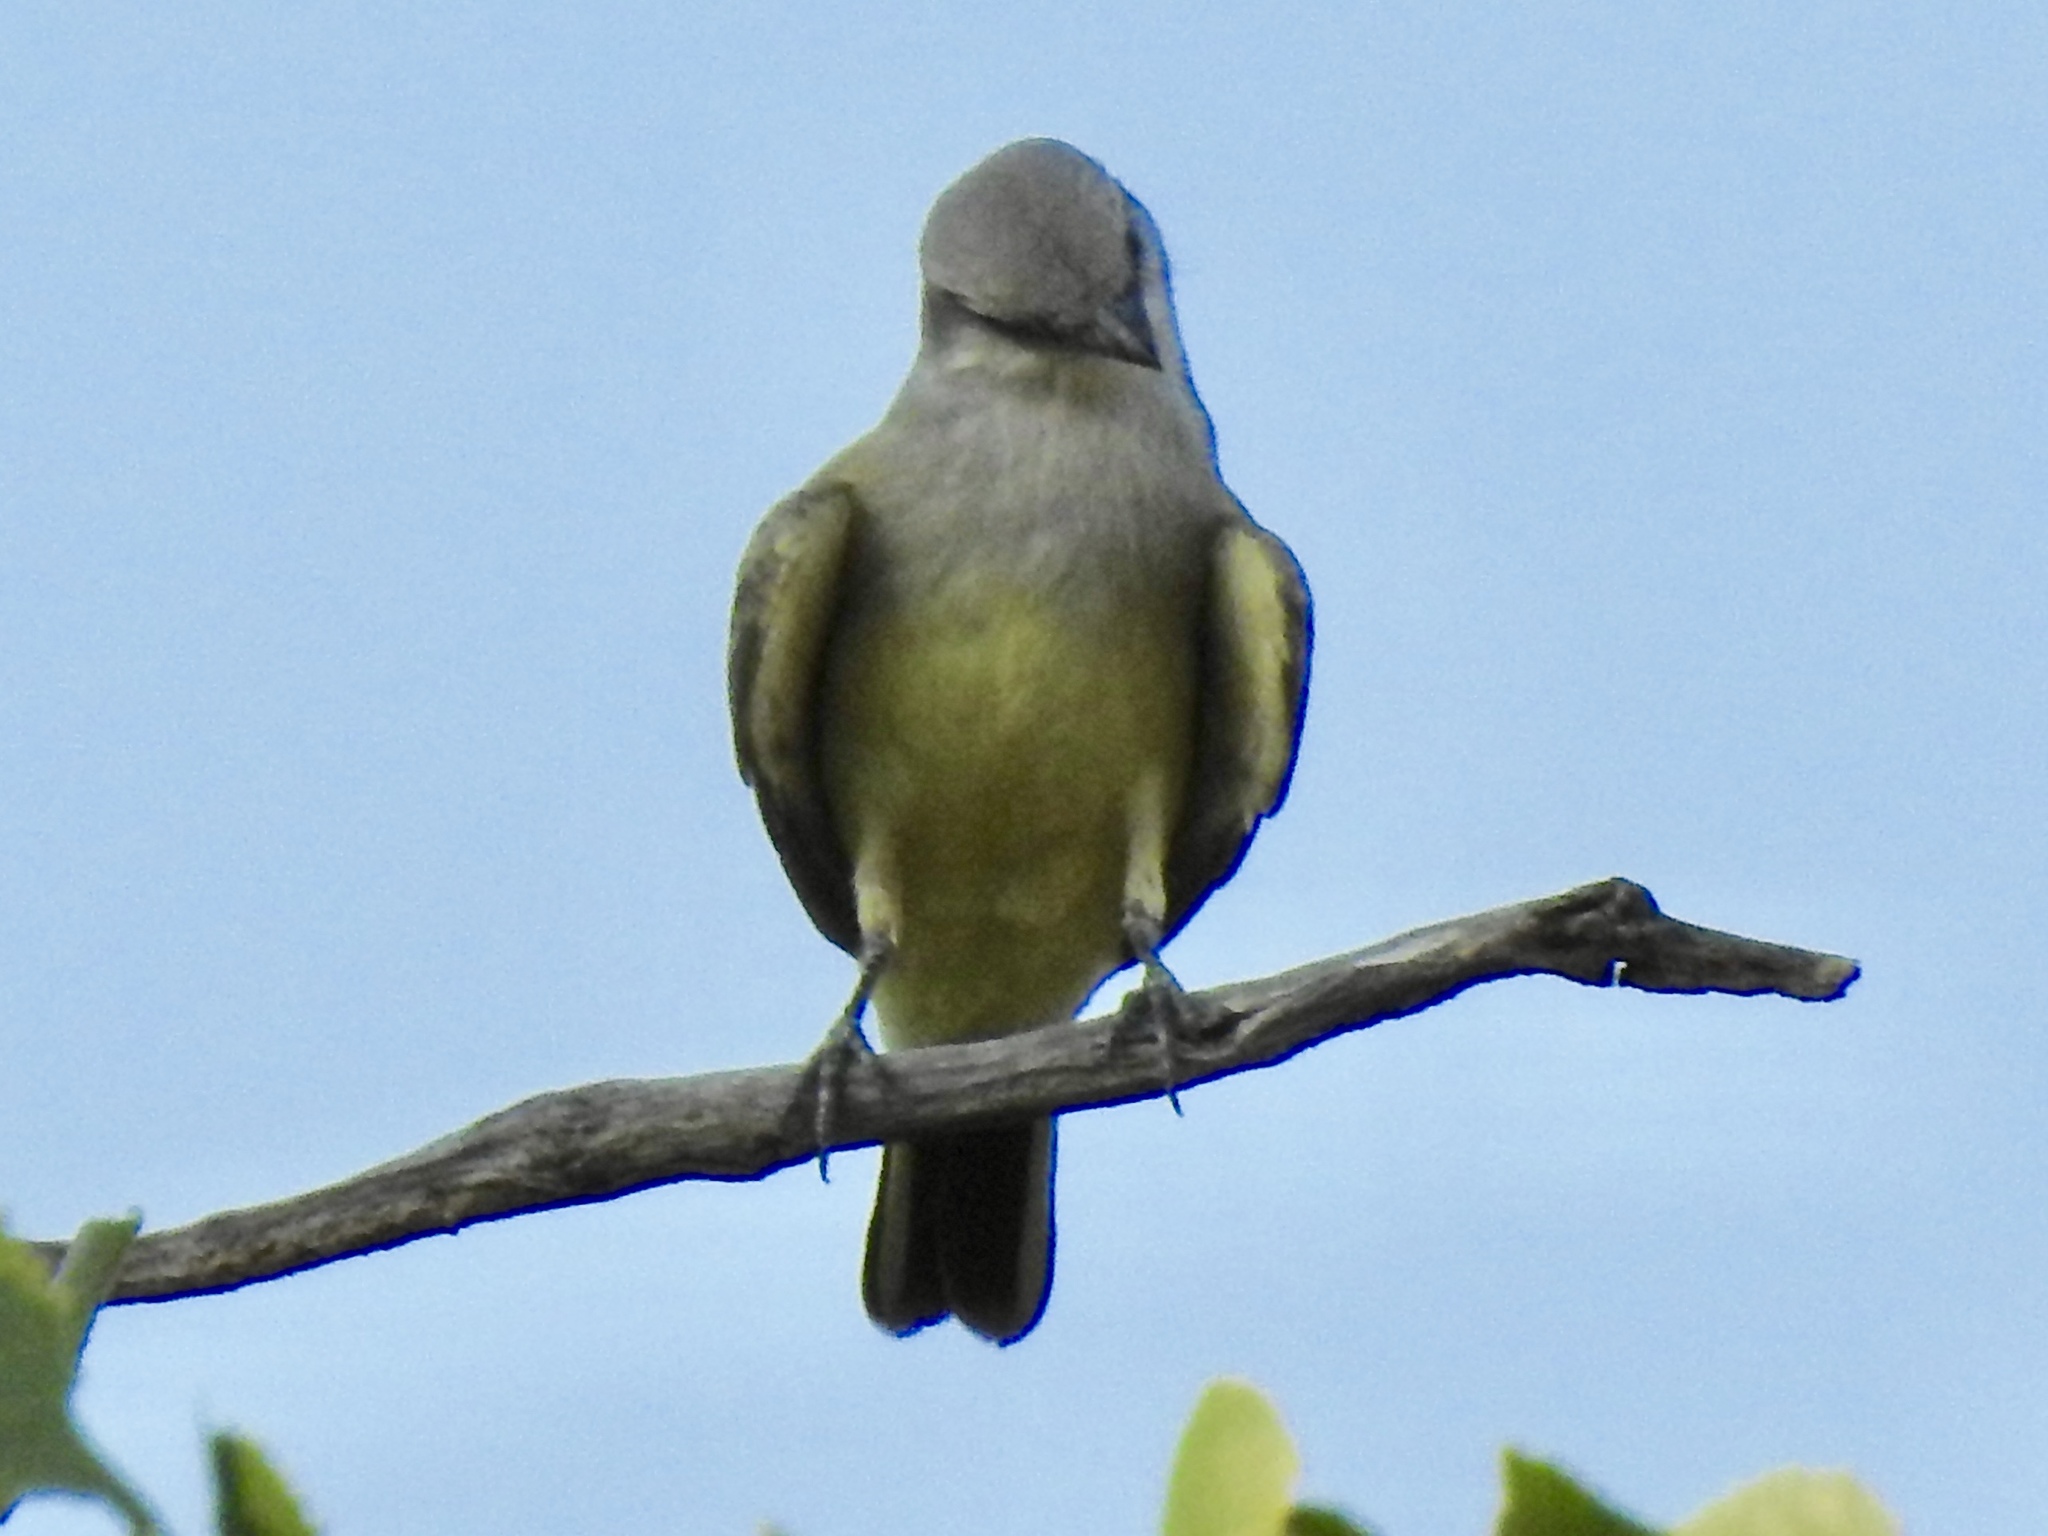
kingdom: Animalia
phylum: Chordata
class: Aves
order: Passeriformes
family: Tyrannidae
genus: Tyrannus
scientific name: Tyrannus verticalis
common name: Western kingbird
